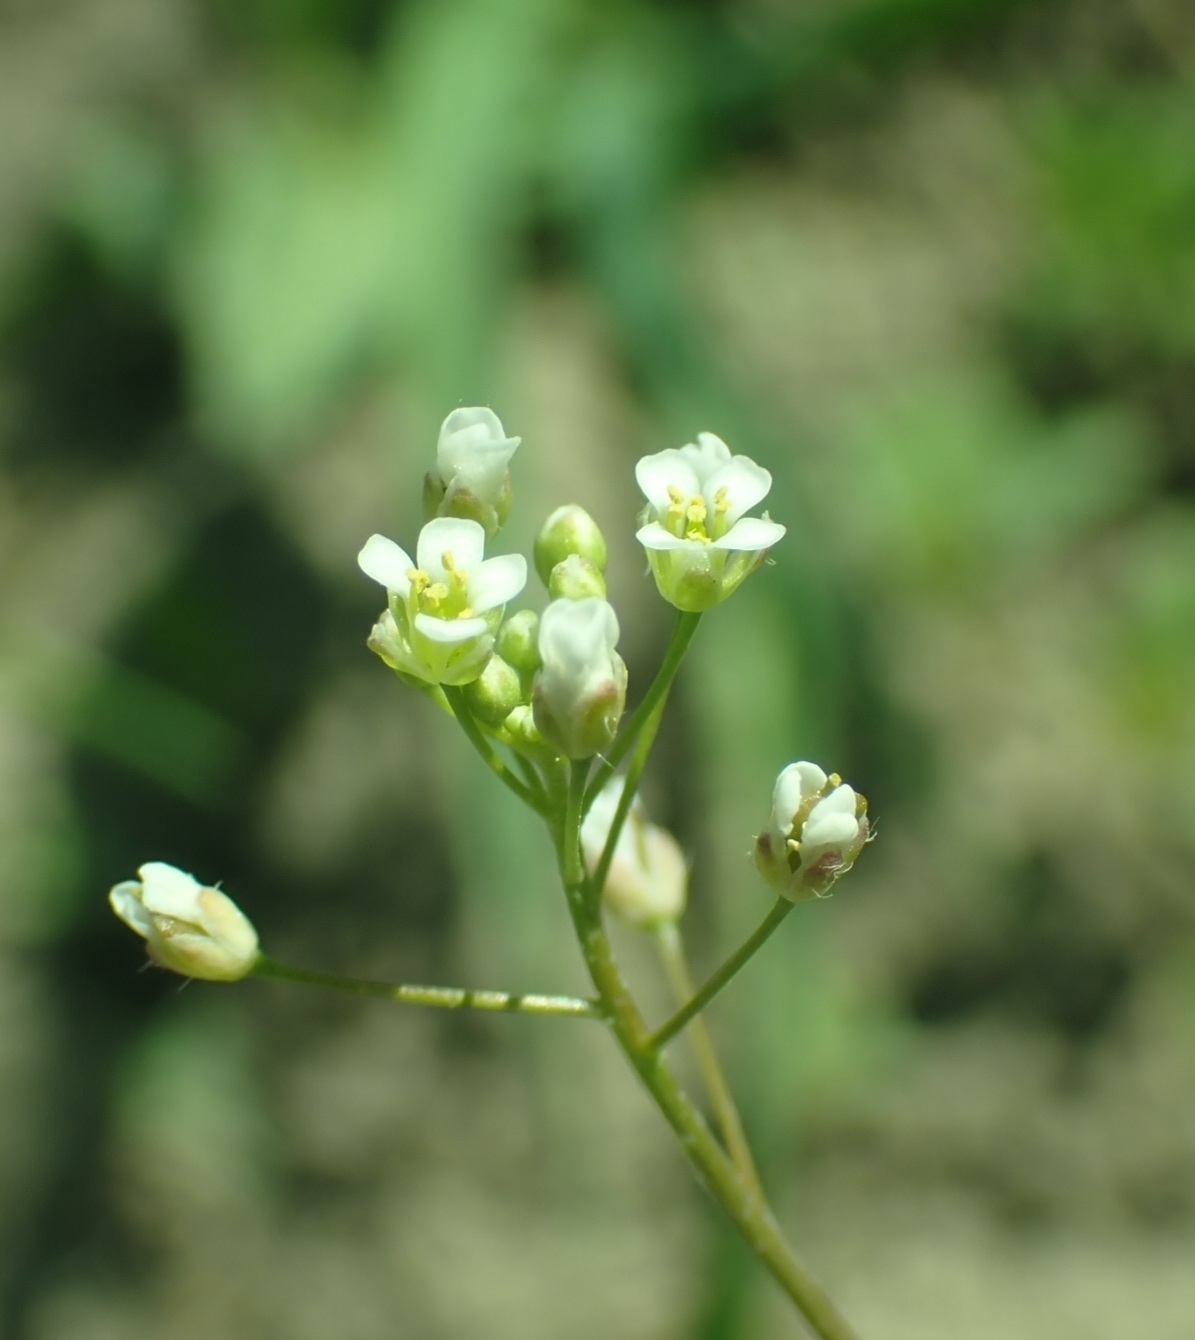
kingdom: Plantae
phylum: Tracheophyta
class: Magnoliopsida
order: Brassicales
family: Brassicaceae
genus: Capsella
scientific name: Capsella bursa-pastoris
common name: Shepherd's purse
